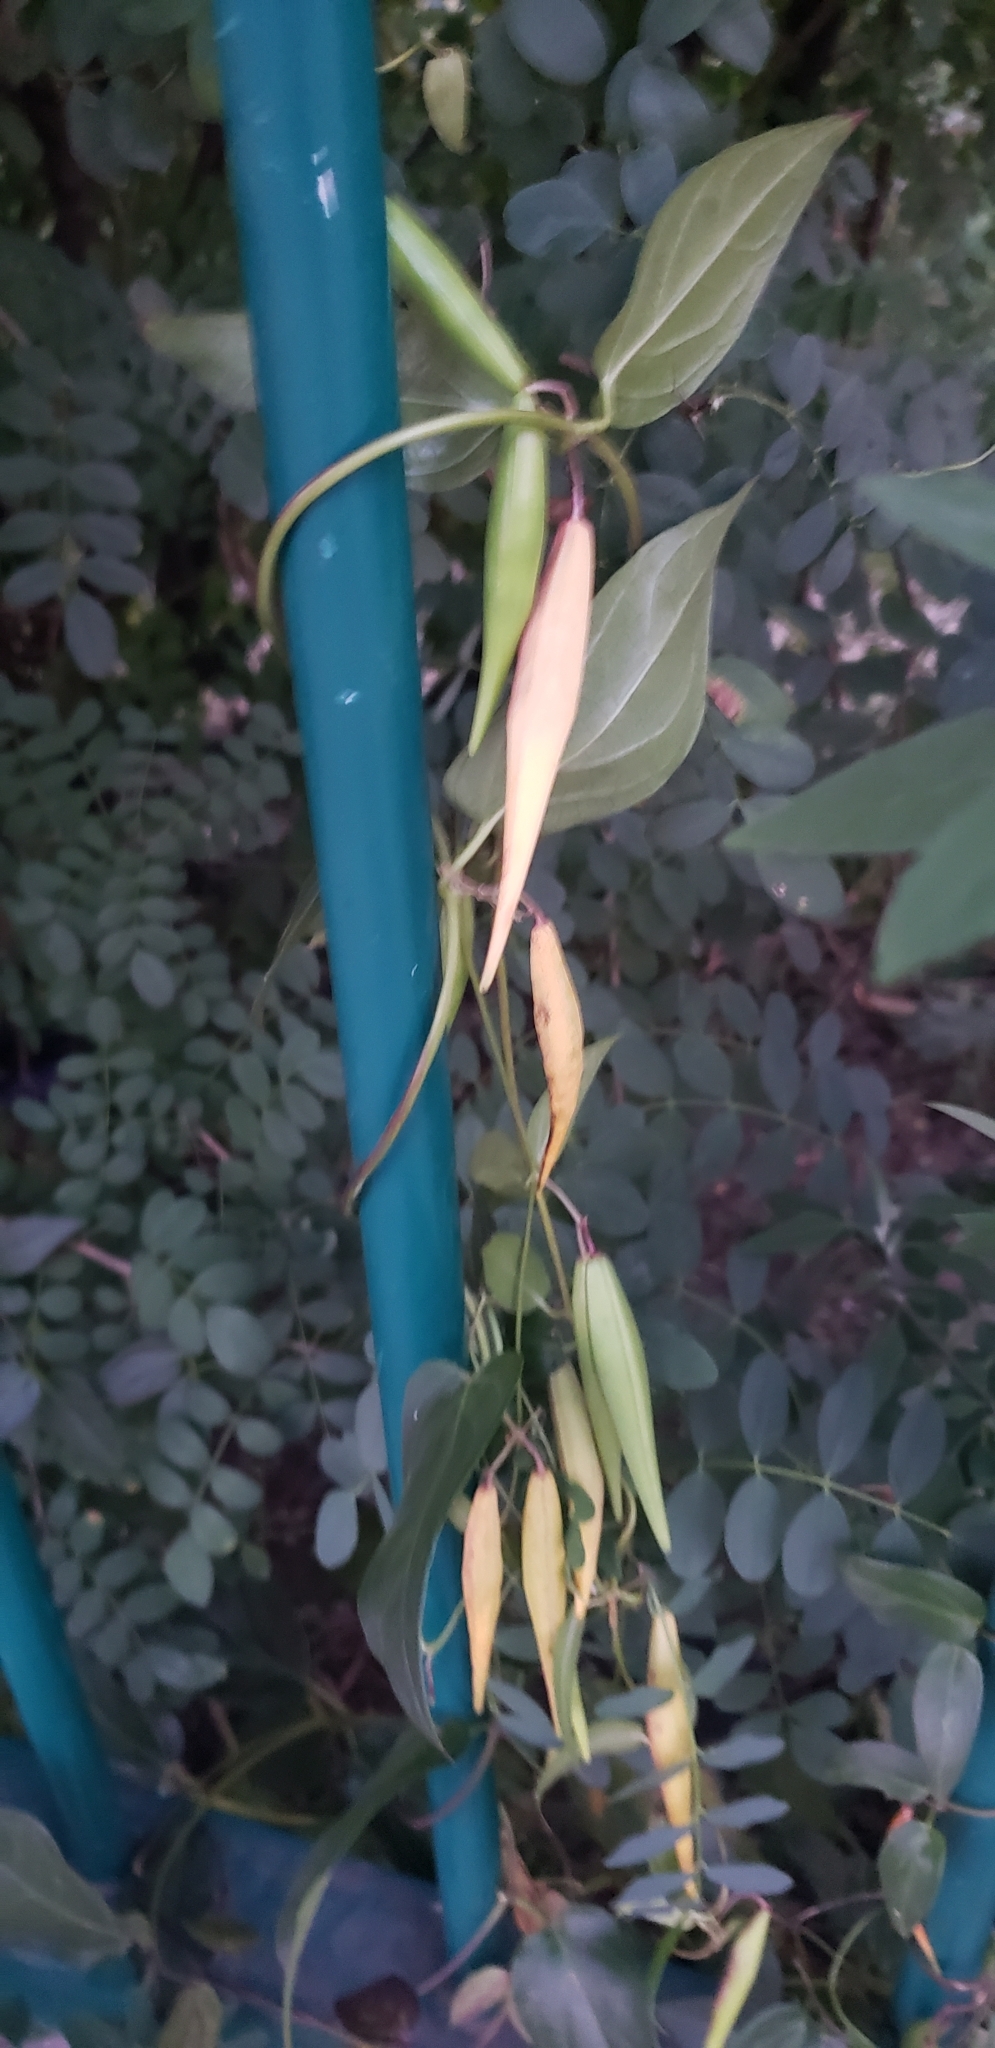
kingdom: Plantae
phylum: Tracheophyta
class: Magnoliopsida
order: Gentianales
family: Apocynaceae
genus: Vincetoxicum
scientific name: Vincetoxicum nigrum
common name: Black swallow-wort
